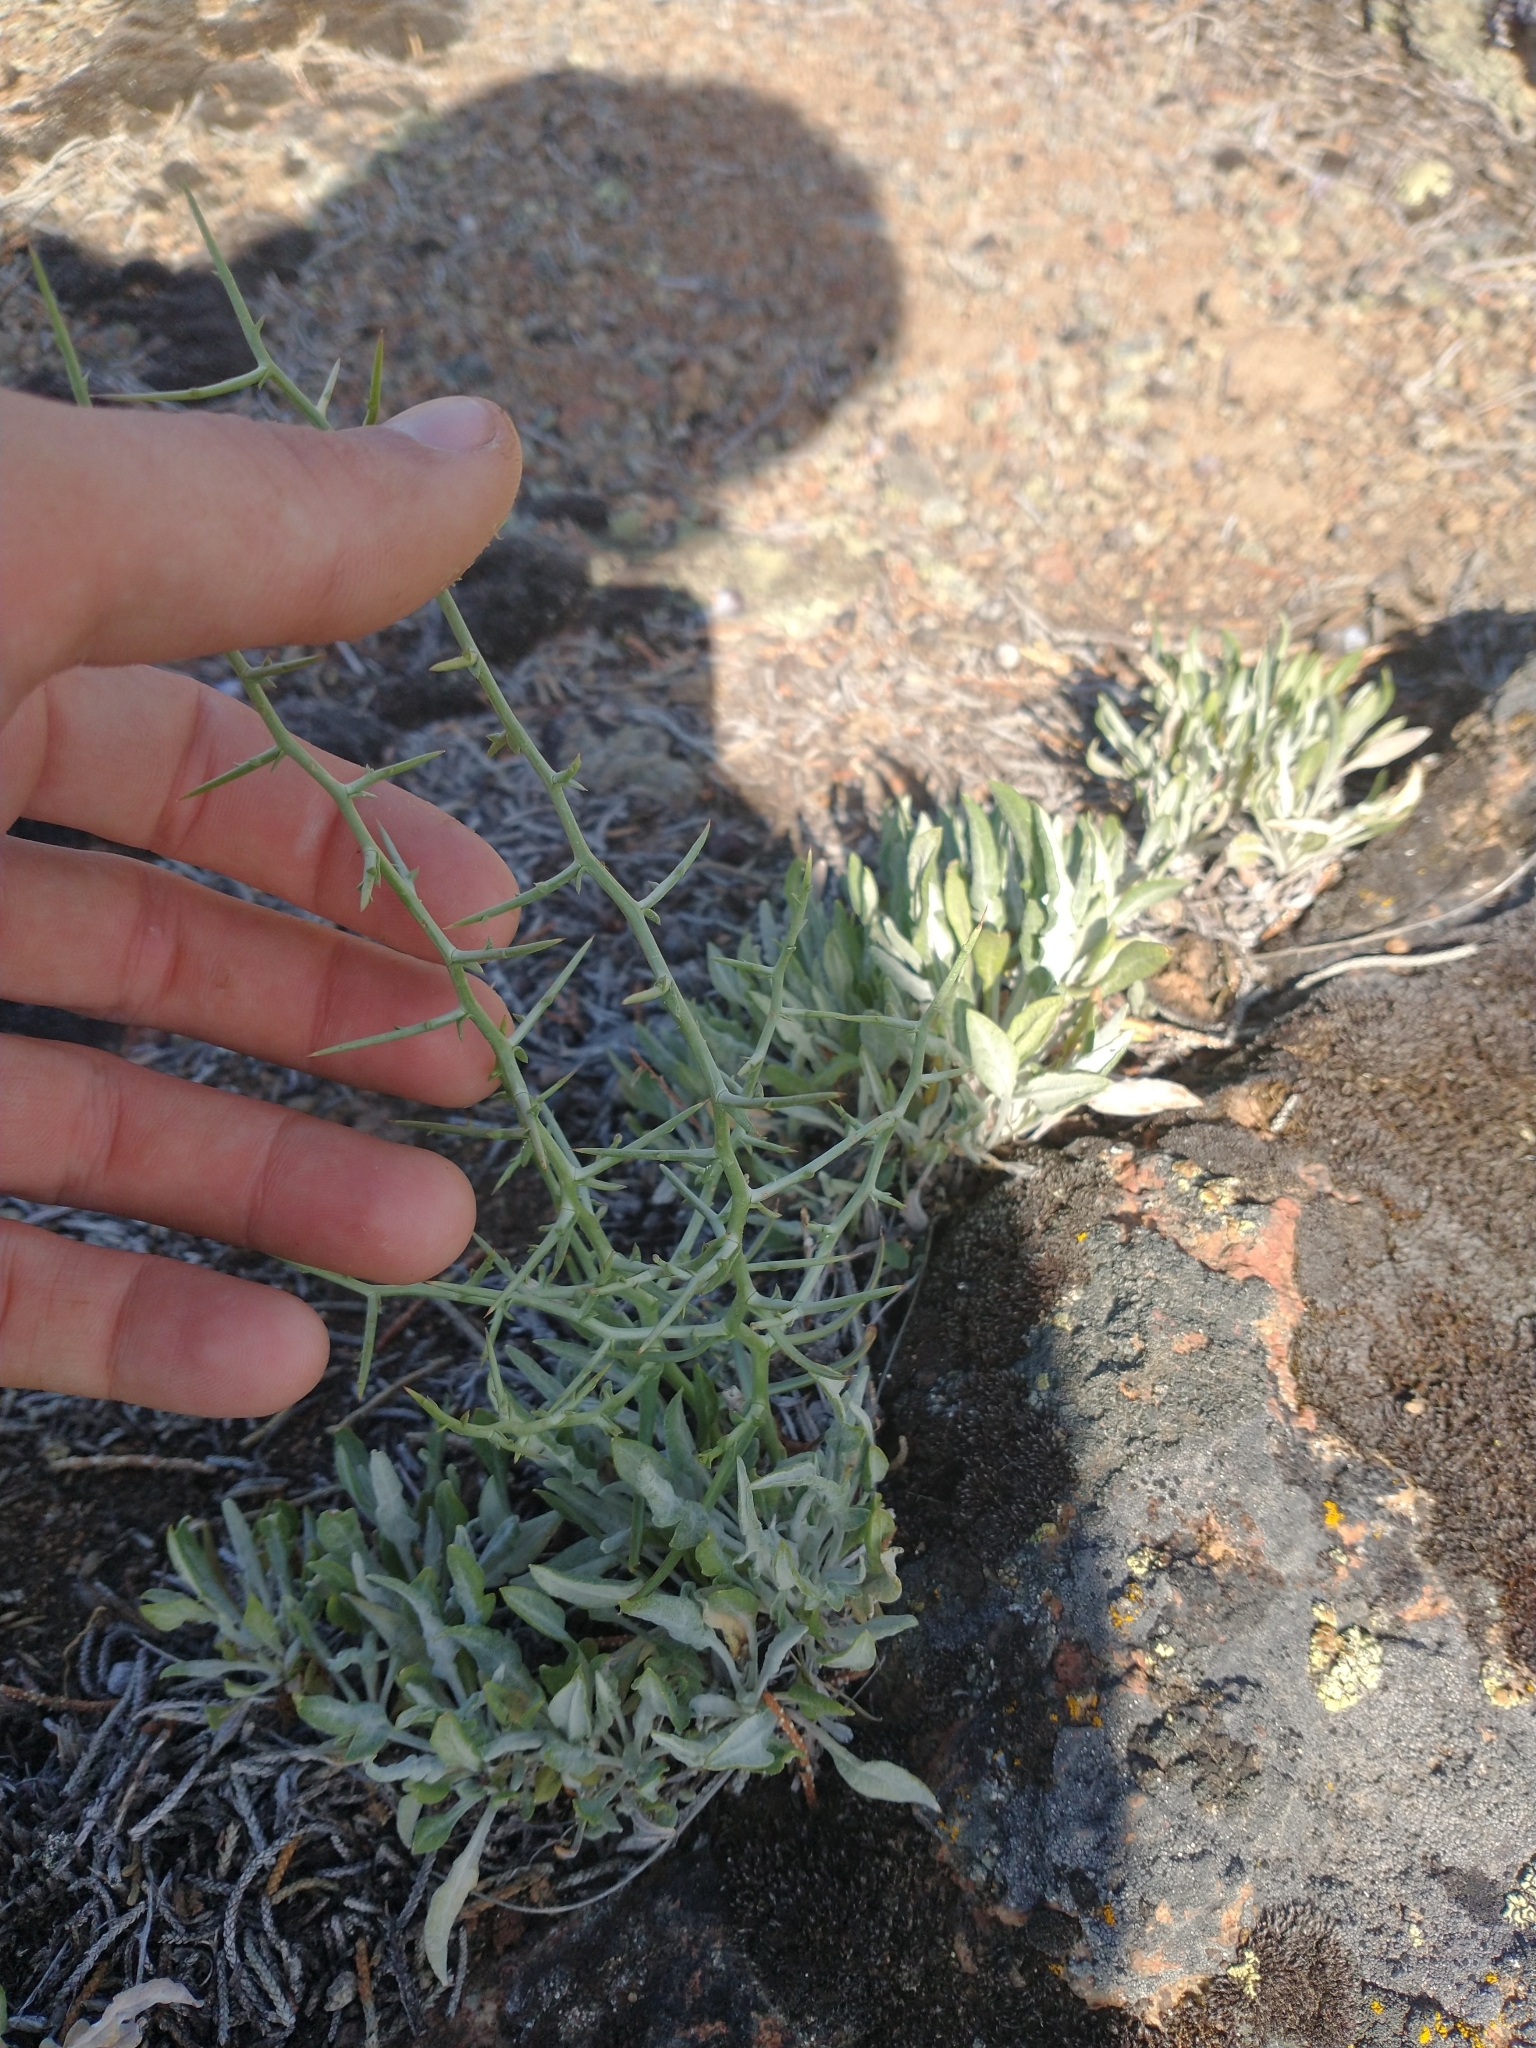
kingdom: Plantae
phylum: Tracheophyta
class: Magnoliopsida
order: Asterales
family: Asteraceae
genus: Pleiacanthus
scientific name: Pleiacanthus spinosus
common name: Thorny skeleton-weed
